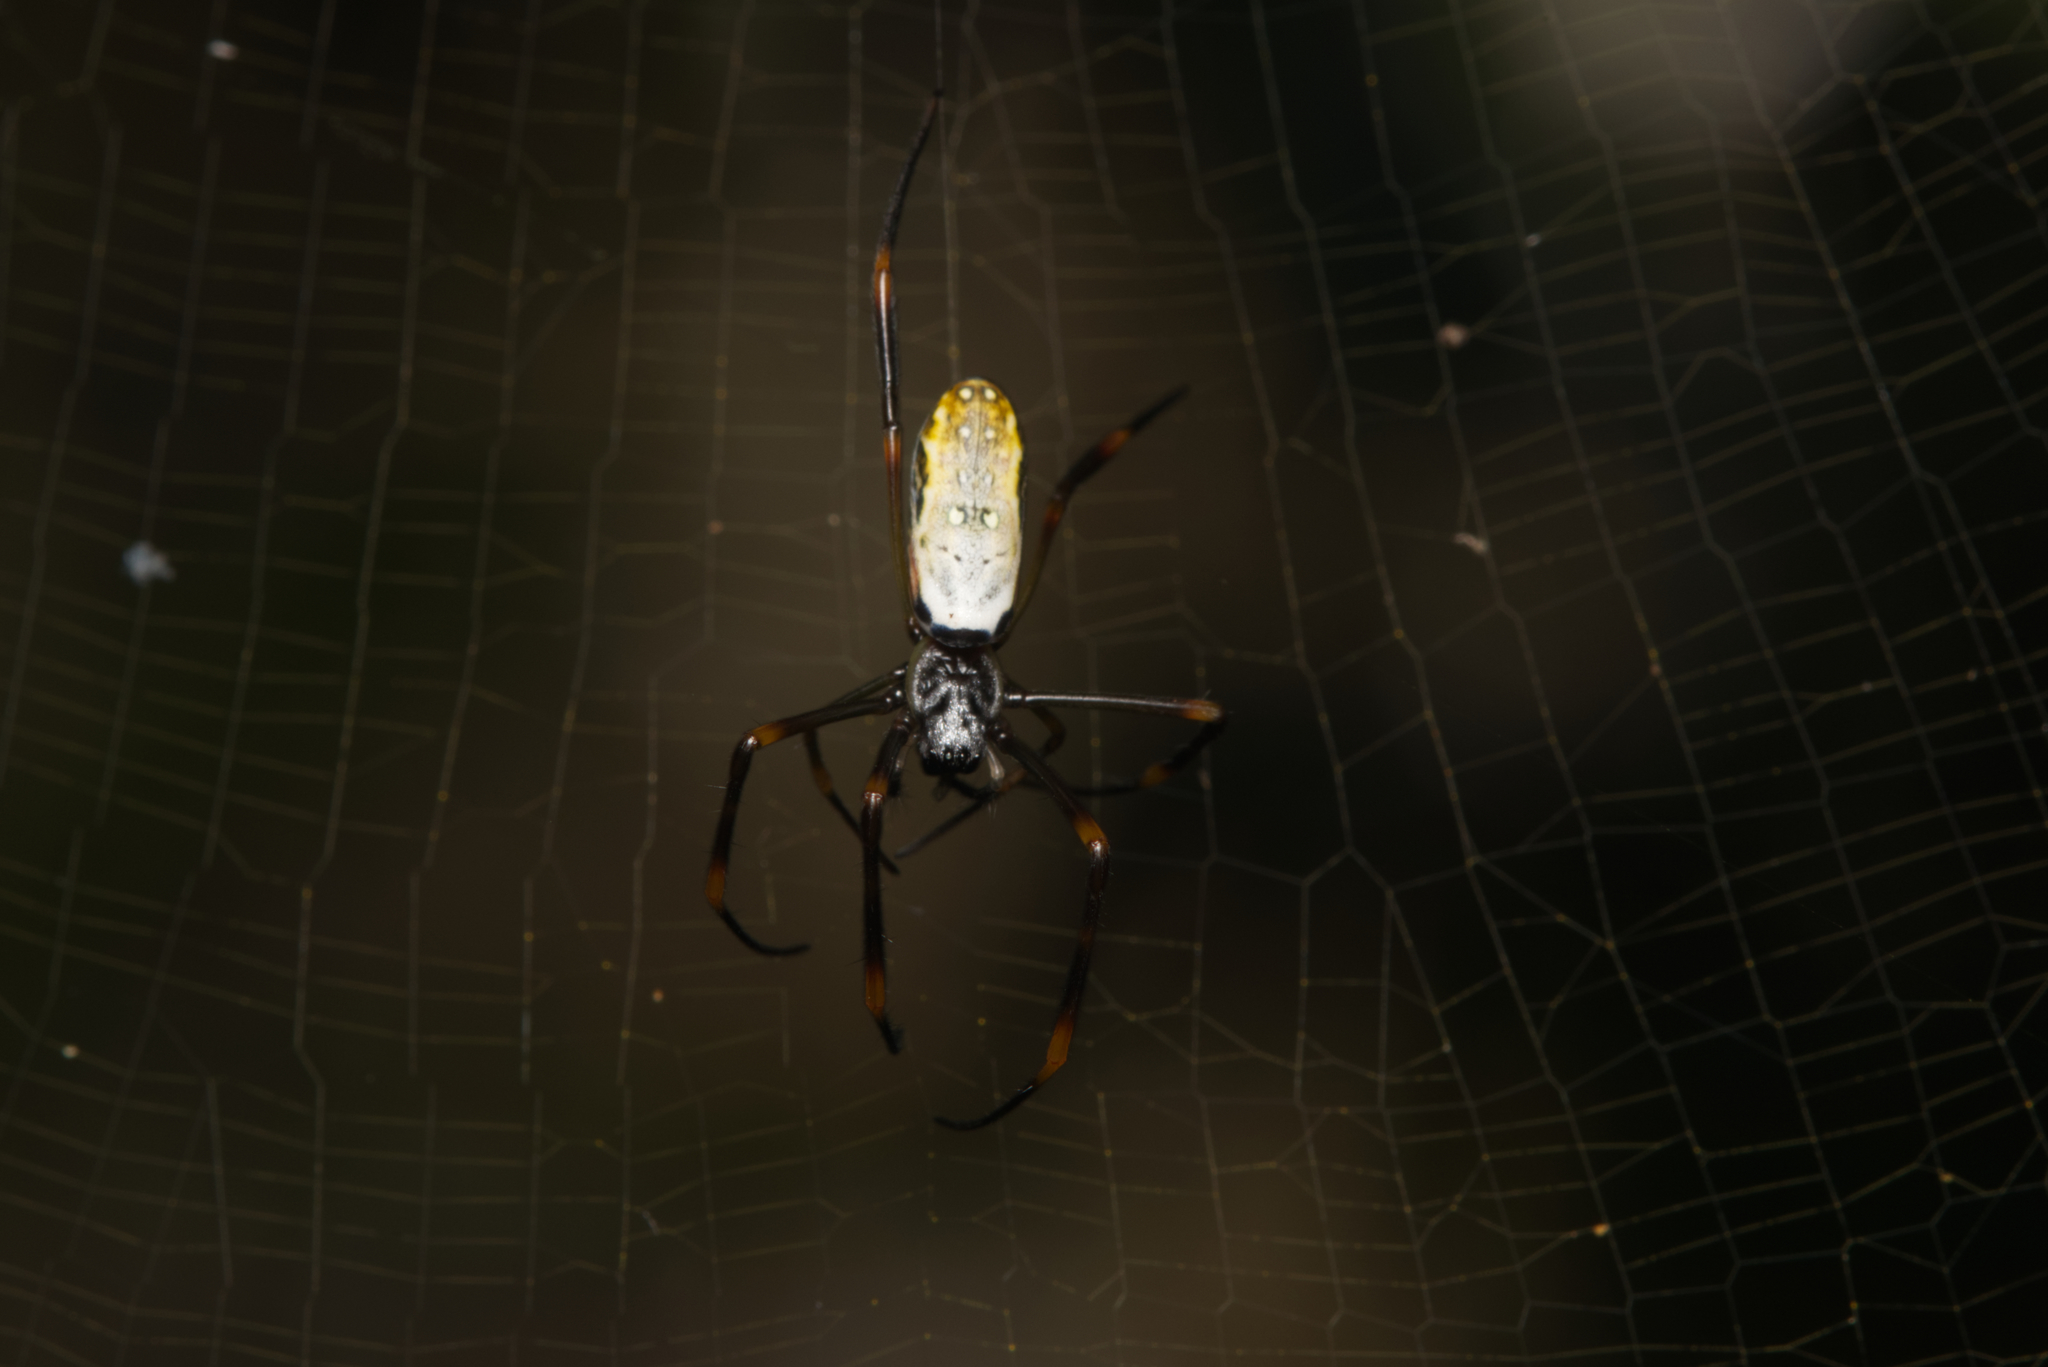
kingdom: Animalia
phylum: Arthropoda
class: Arachnida
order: Araneae
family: Araneidae
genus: Trichonephila
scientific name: Trichonephila plumipes
